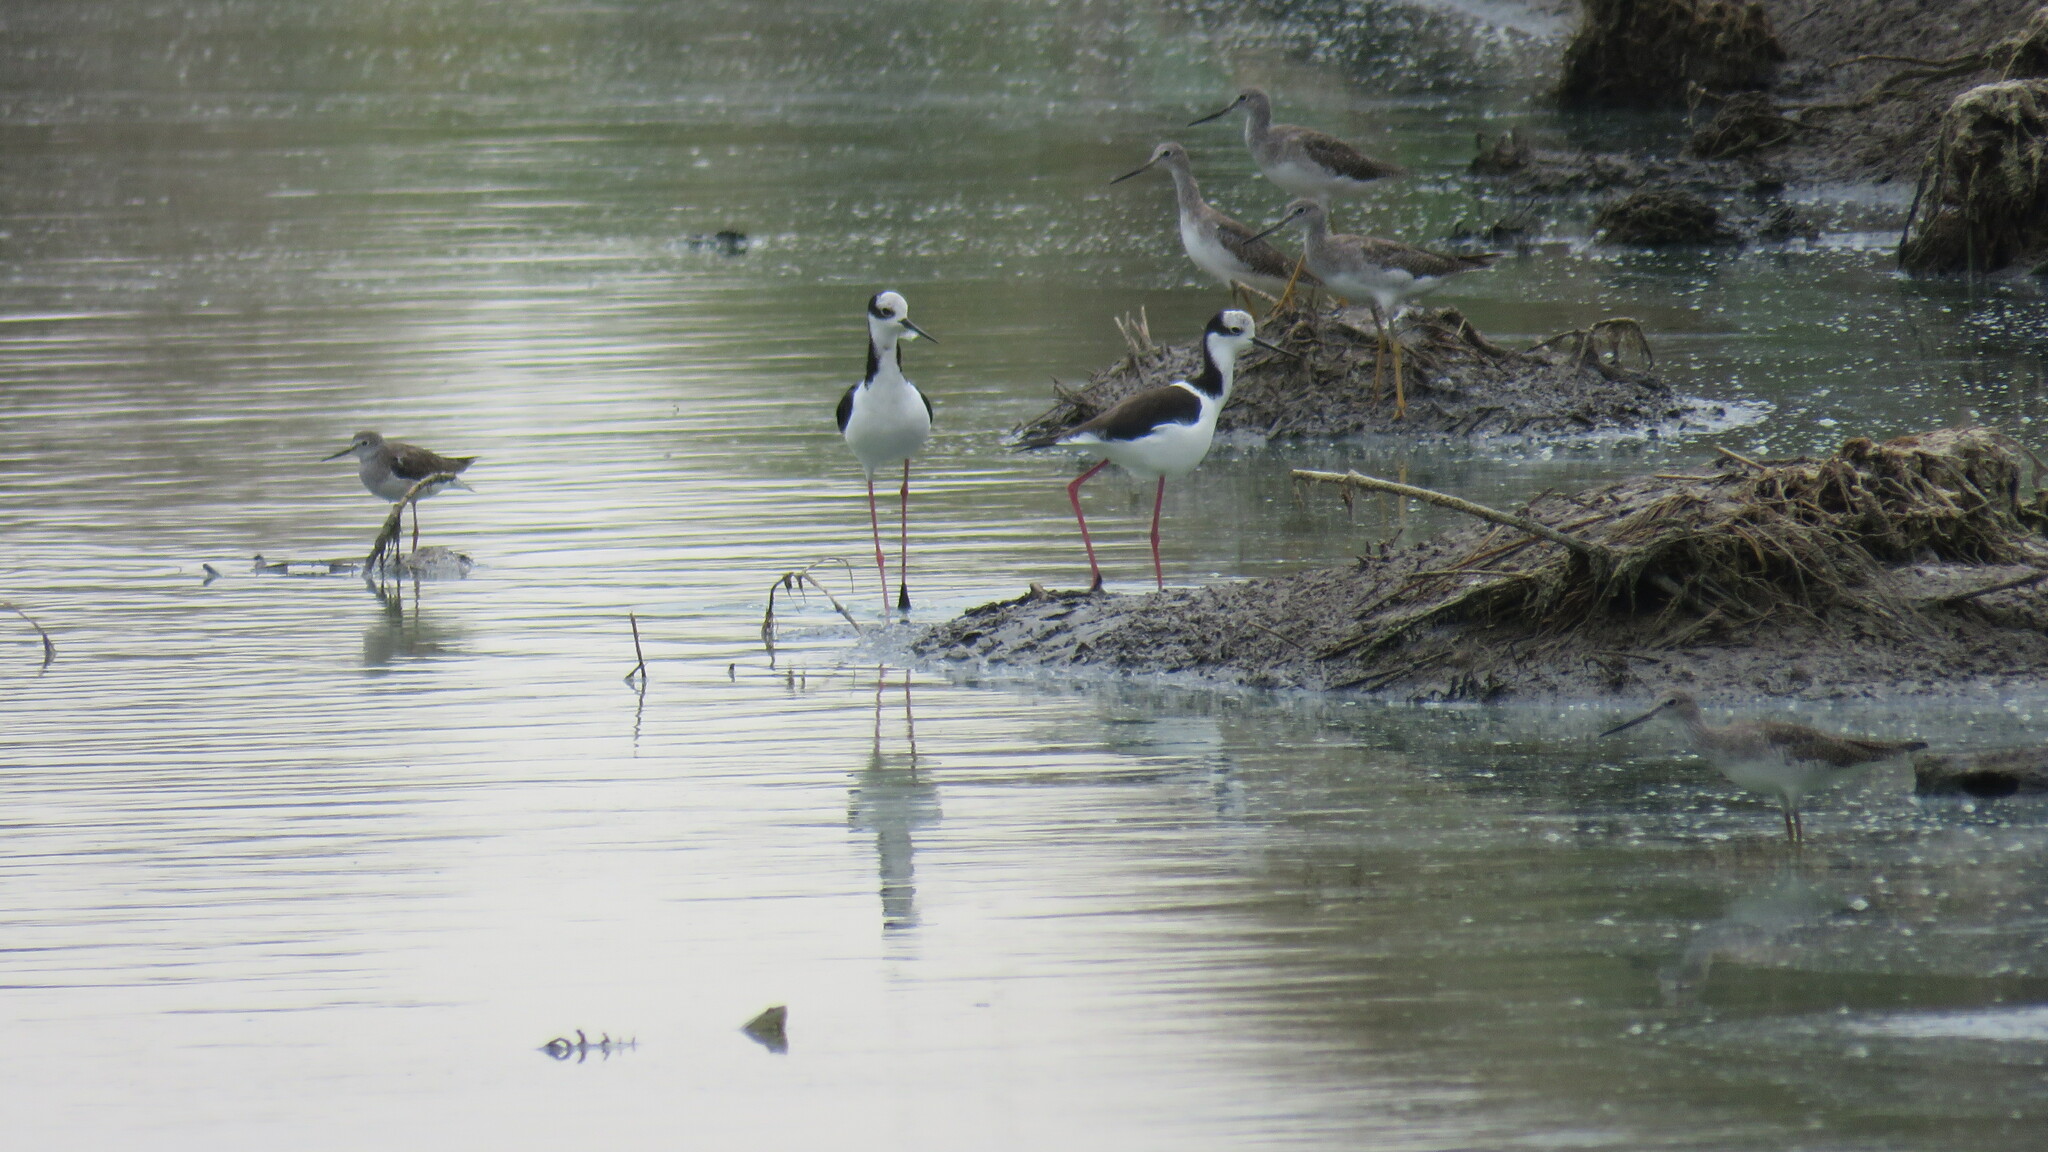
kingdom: Animalia
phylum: Chordata
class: Aves
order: Charadriiformes
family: Scolopacidae
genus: Tringa
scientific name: Tringa melanoleuca
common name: Greater yellowlegs
